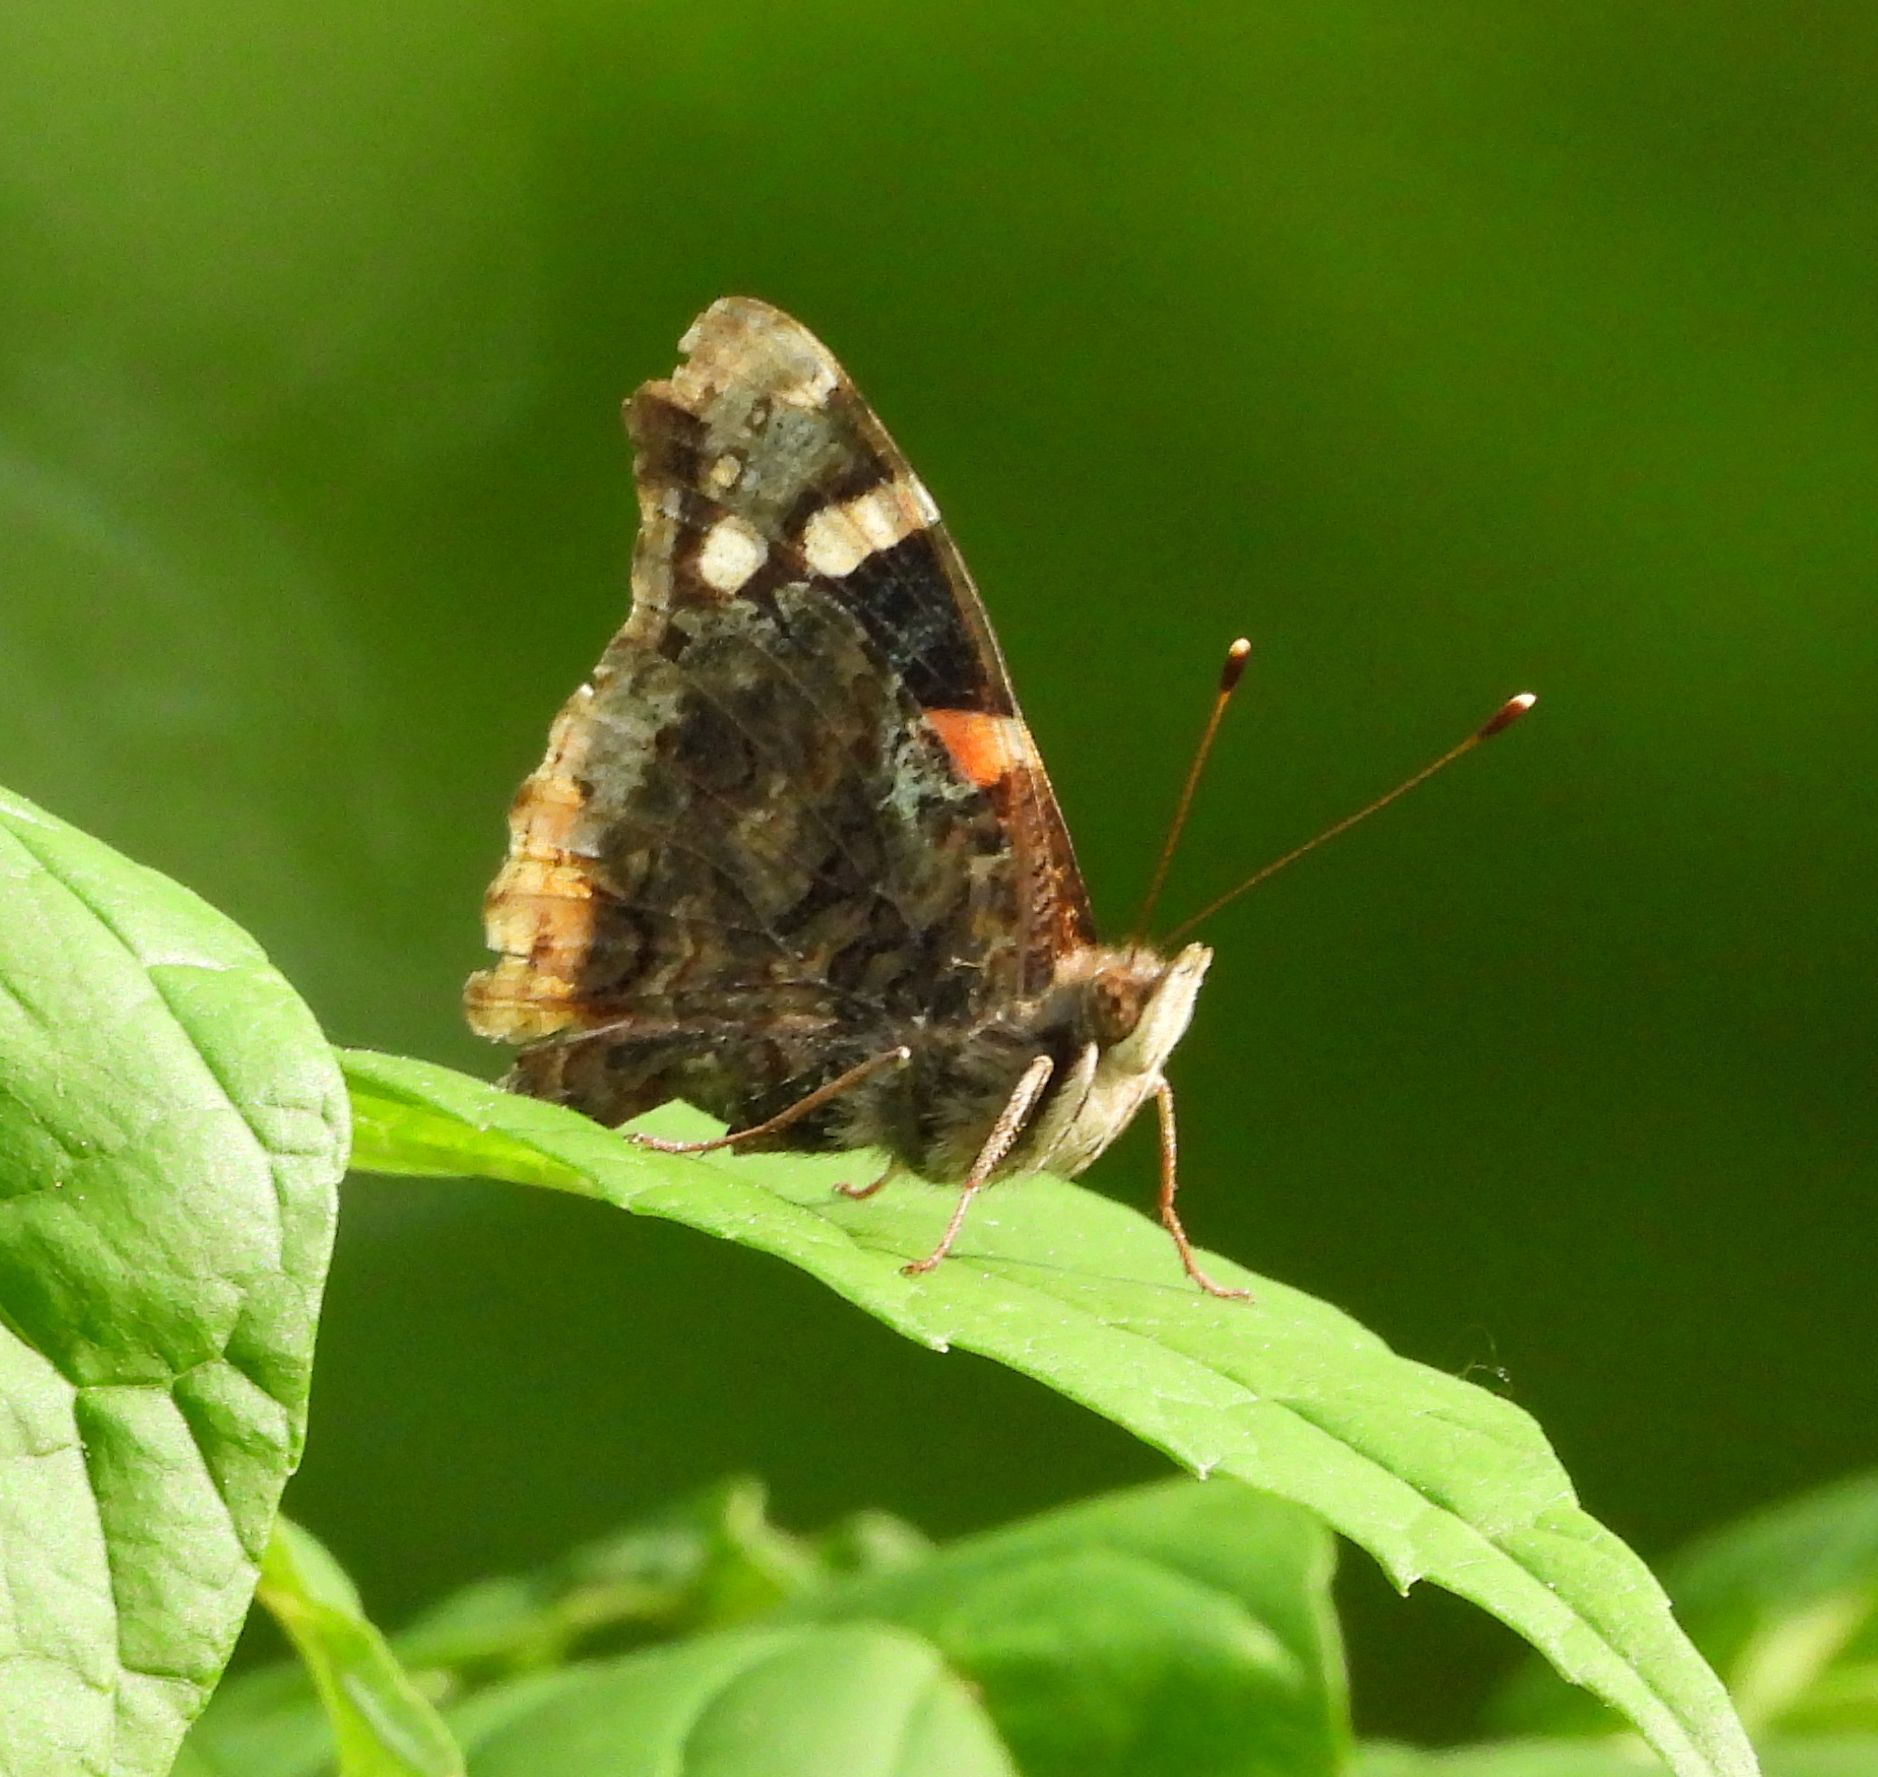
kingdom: Animalia
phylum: Arthropoda
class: Insecta
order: Lepidoptera
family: Nymphalidae
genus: Vanessa
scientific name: Vanessa atalanta
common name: Red admiral
